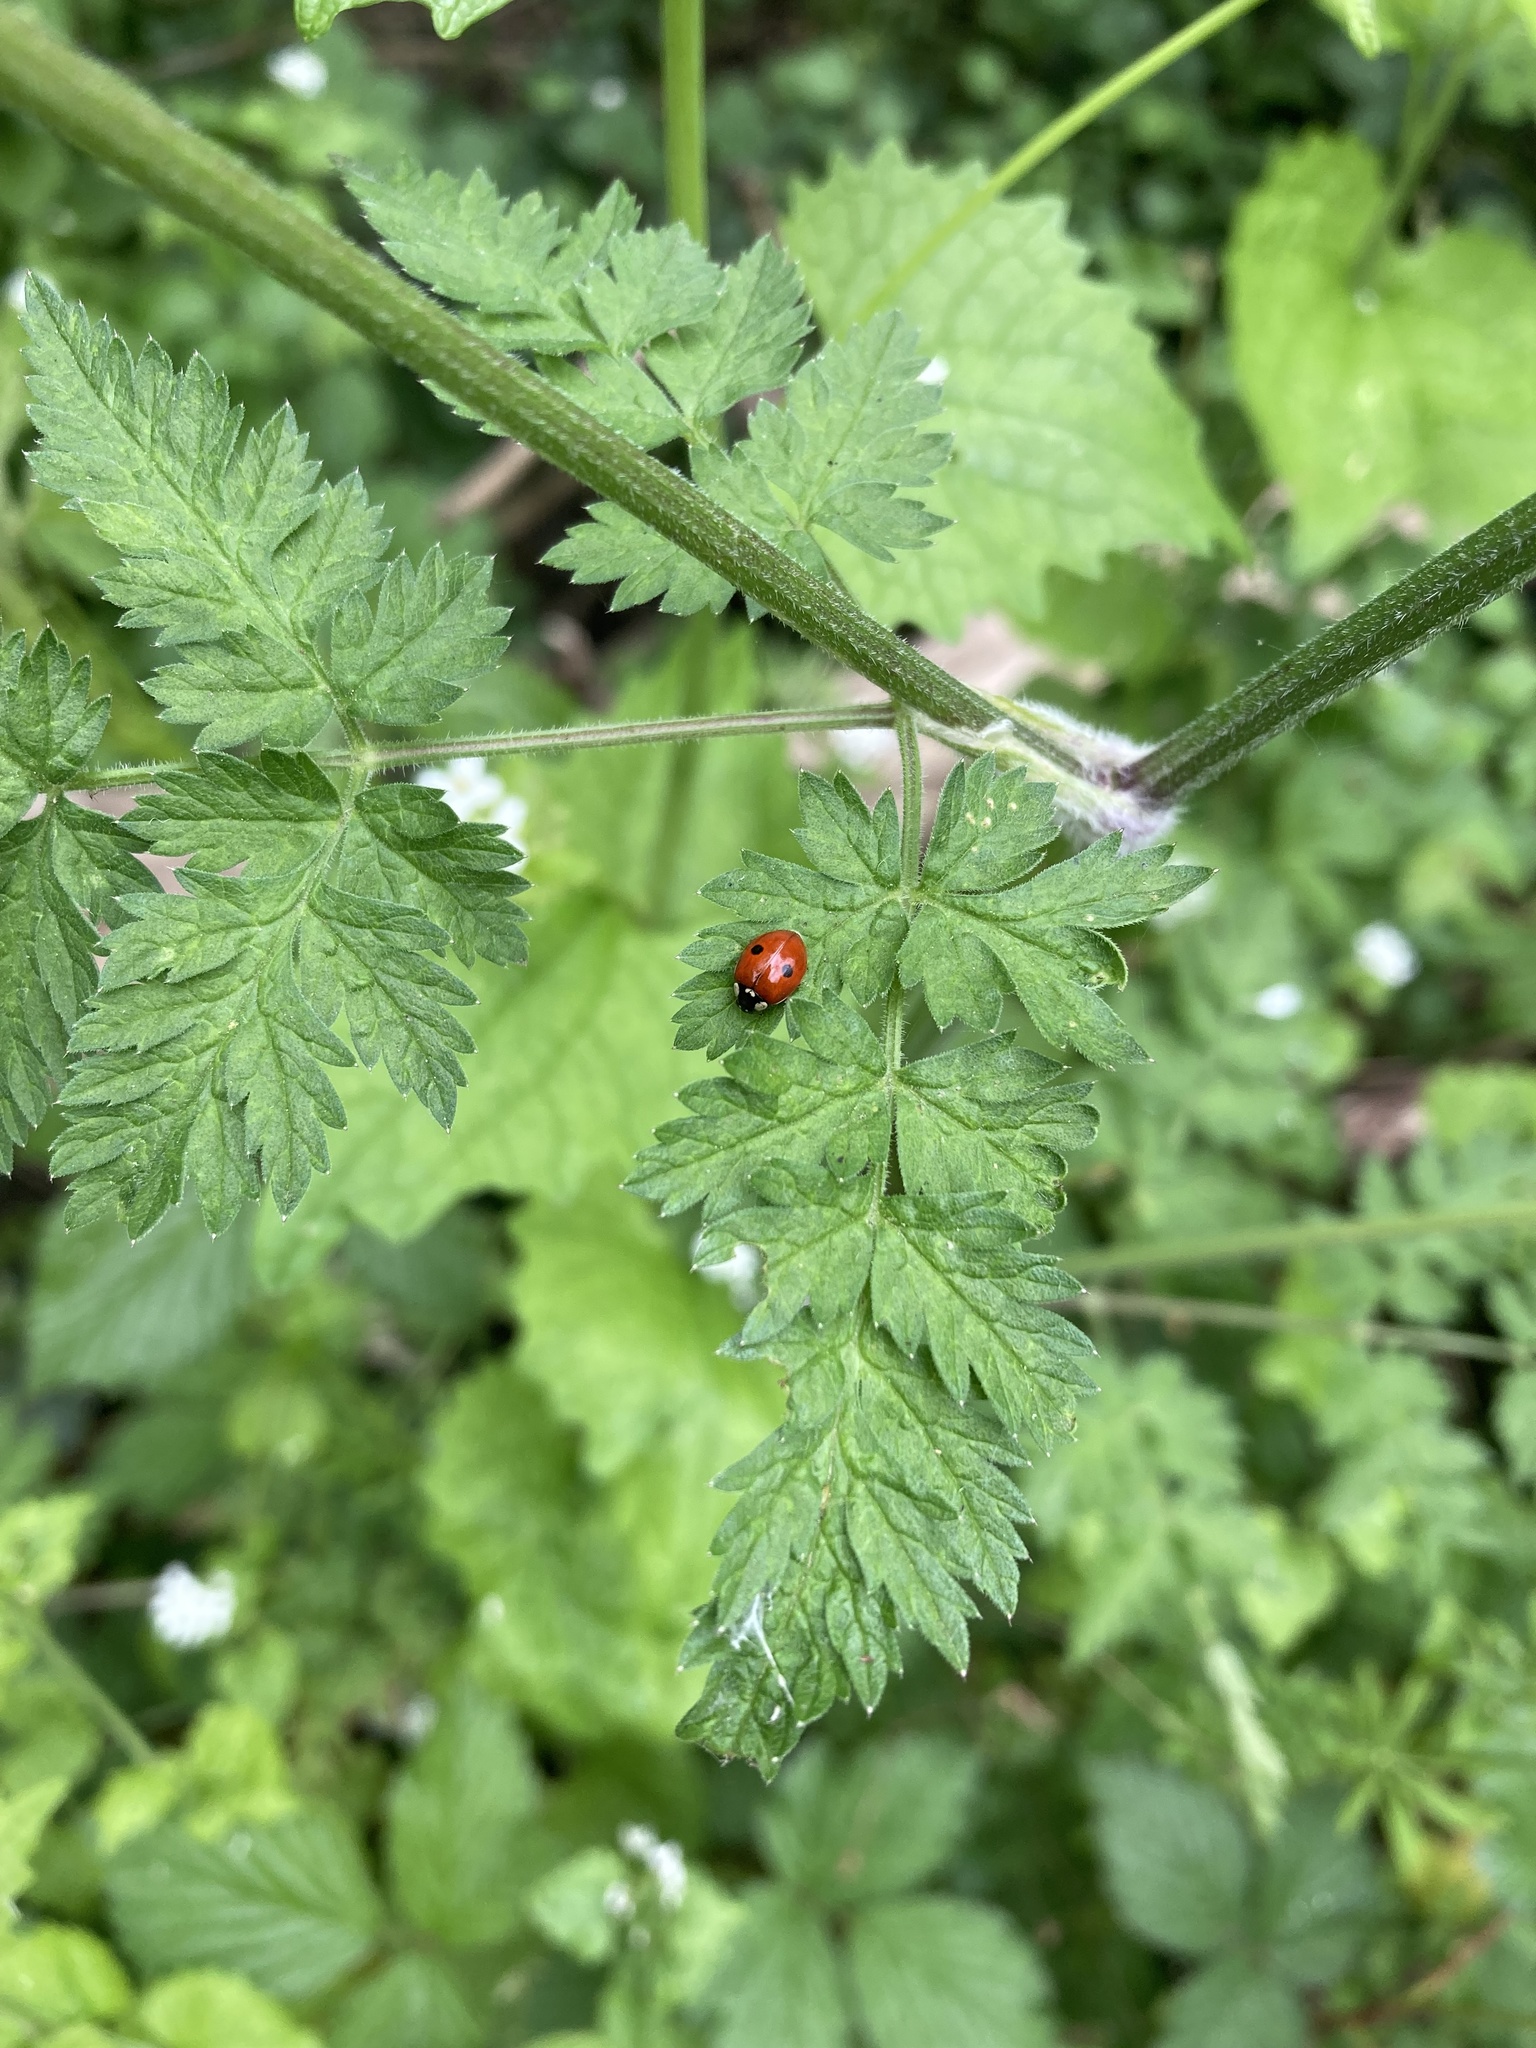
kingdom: Animalia
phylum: Arthropoda
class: Insecta
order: Coleoptera
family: Coccinellidae
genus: Adalia
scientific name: Adalia bipunctata
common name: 2-spot ladybird
